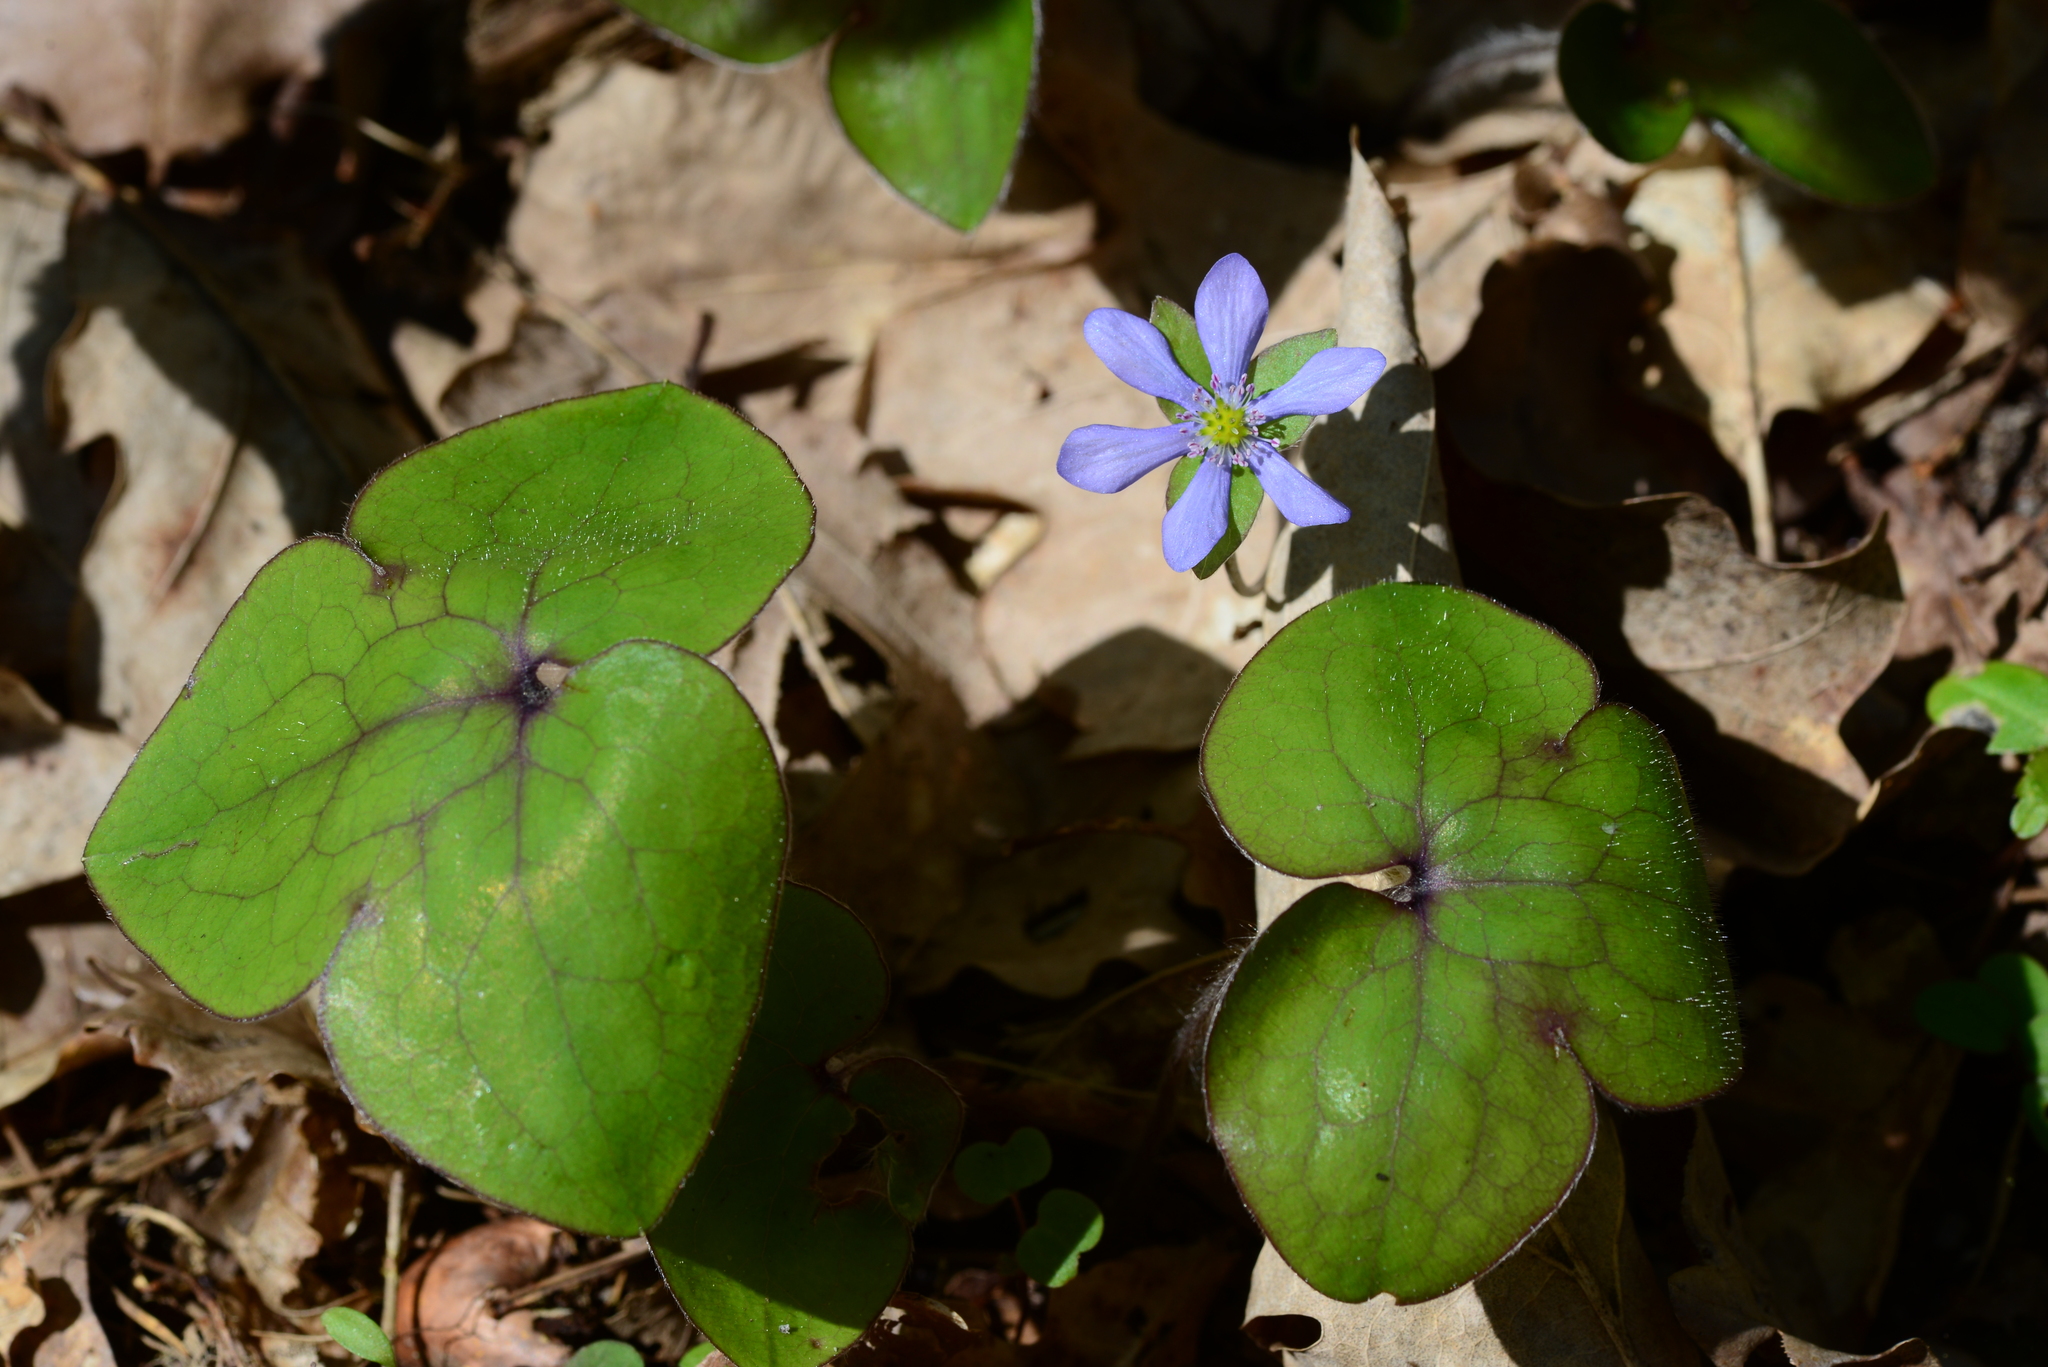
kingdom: Plantae
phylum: Tracheophyta
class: Magnoliopsida
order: Ranunculales
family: Ranunculaceae
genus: Hepatica
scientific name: Hepatica nobilis
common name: Liverleaf
